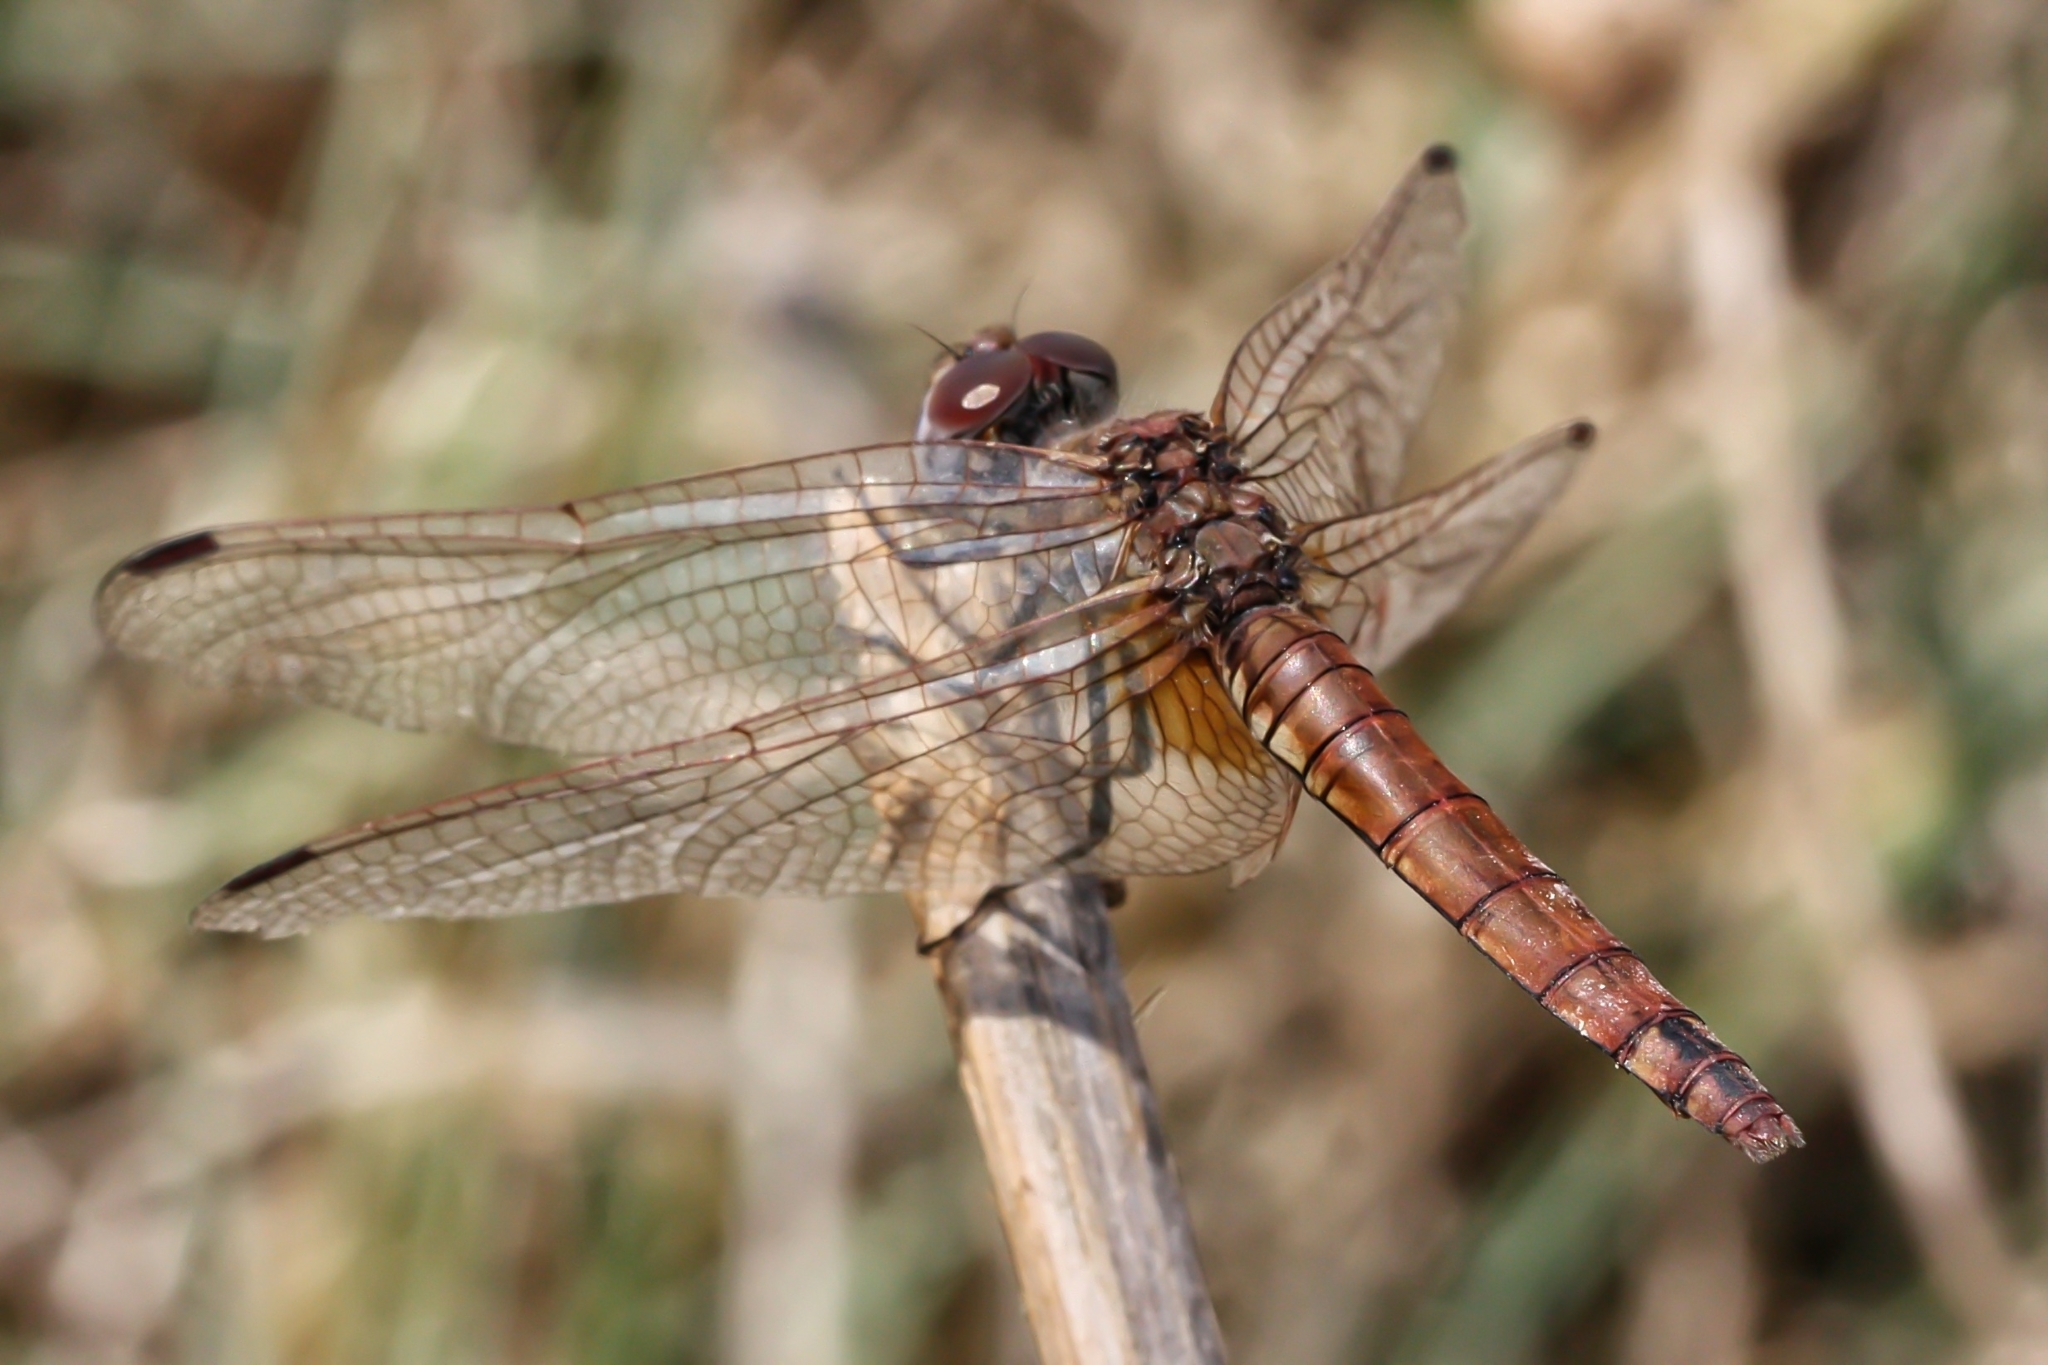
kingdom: Animalia
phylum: Arthropoda
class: Insecta
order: Odonata
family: Libellulidae
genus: Trithemis
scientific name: Trithemis annulata
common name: Violet dropwing
